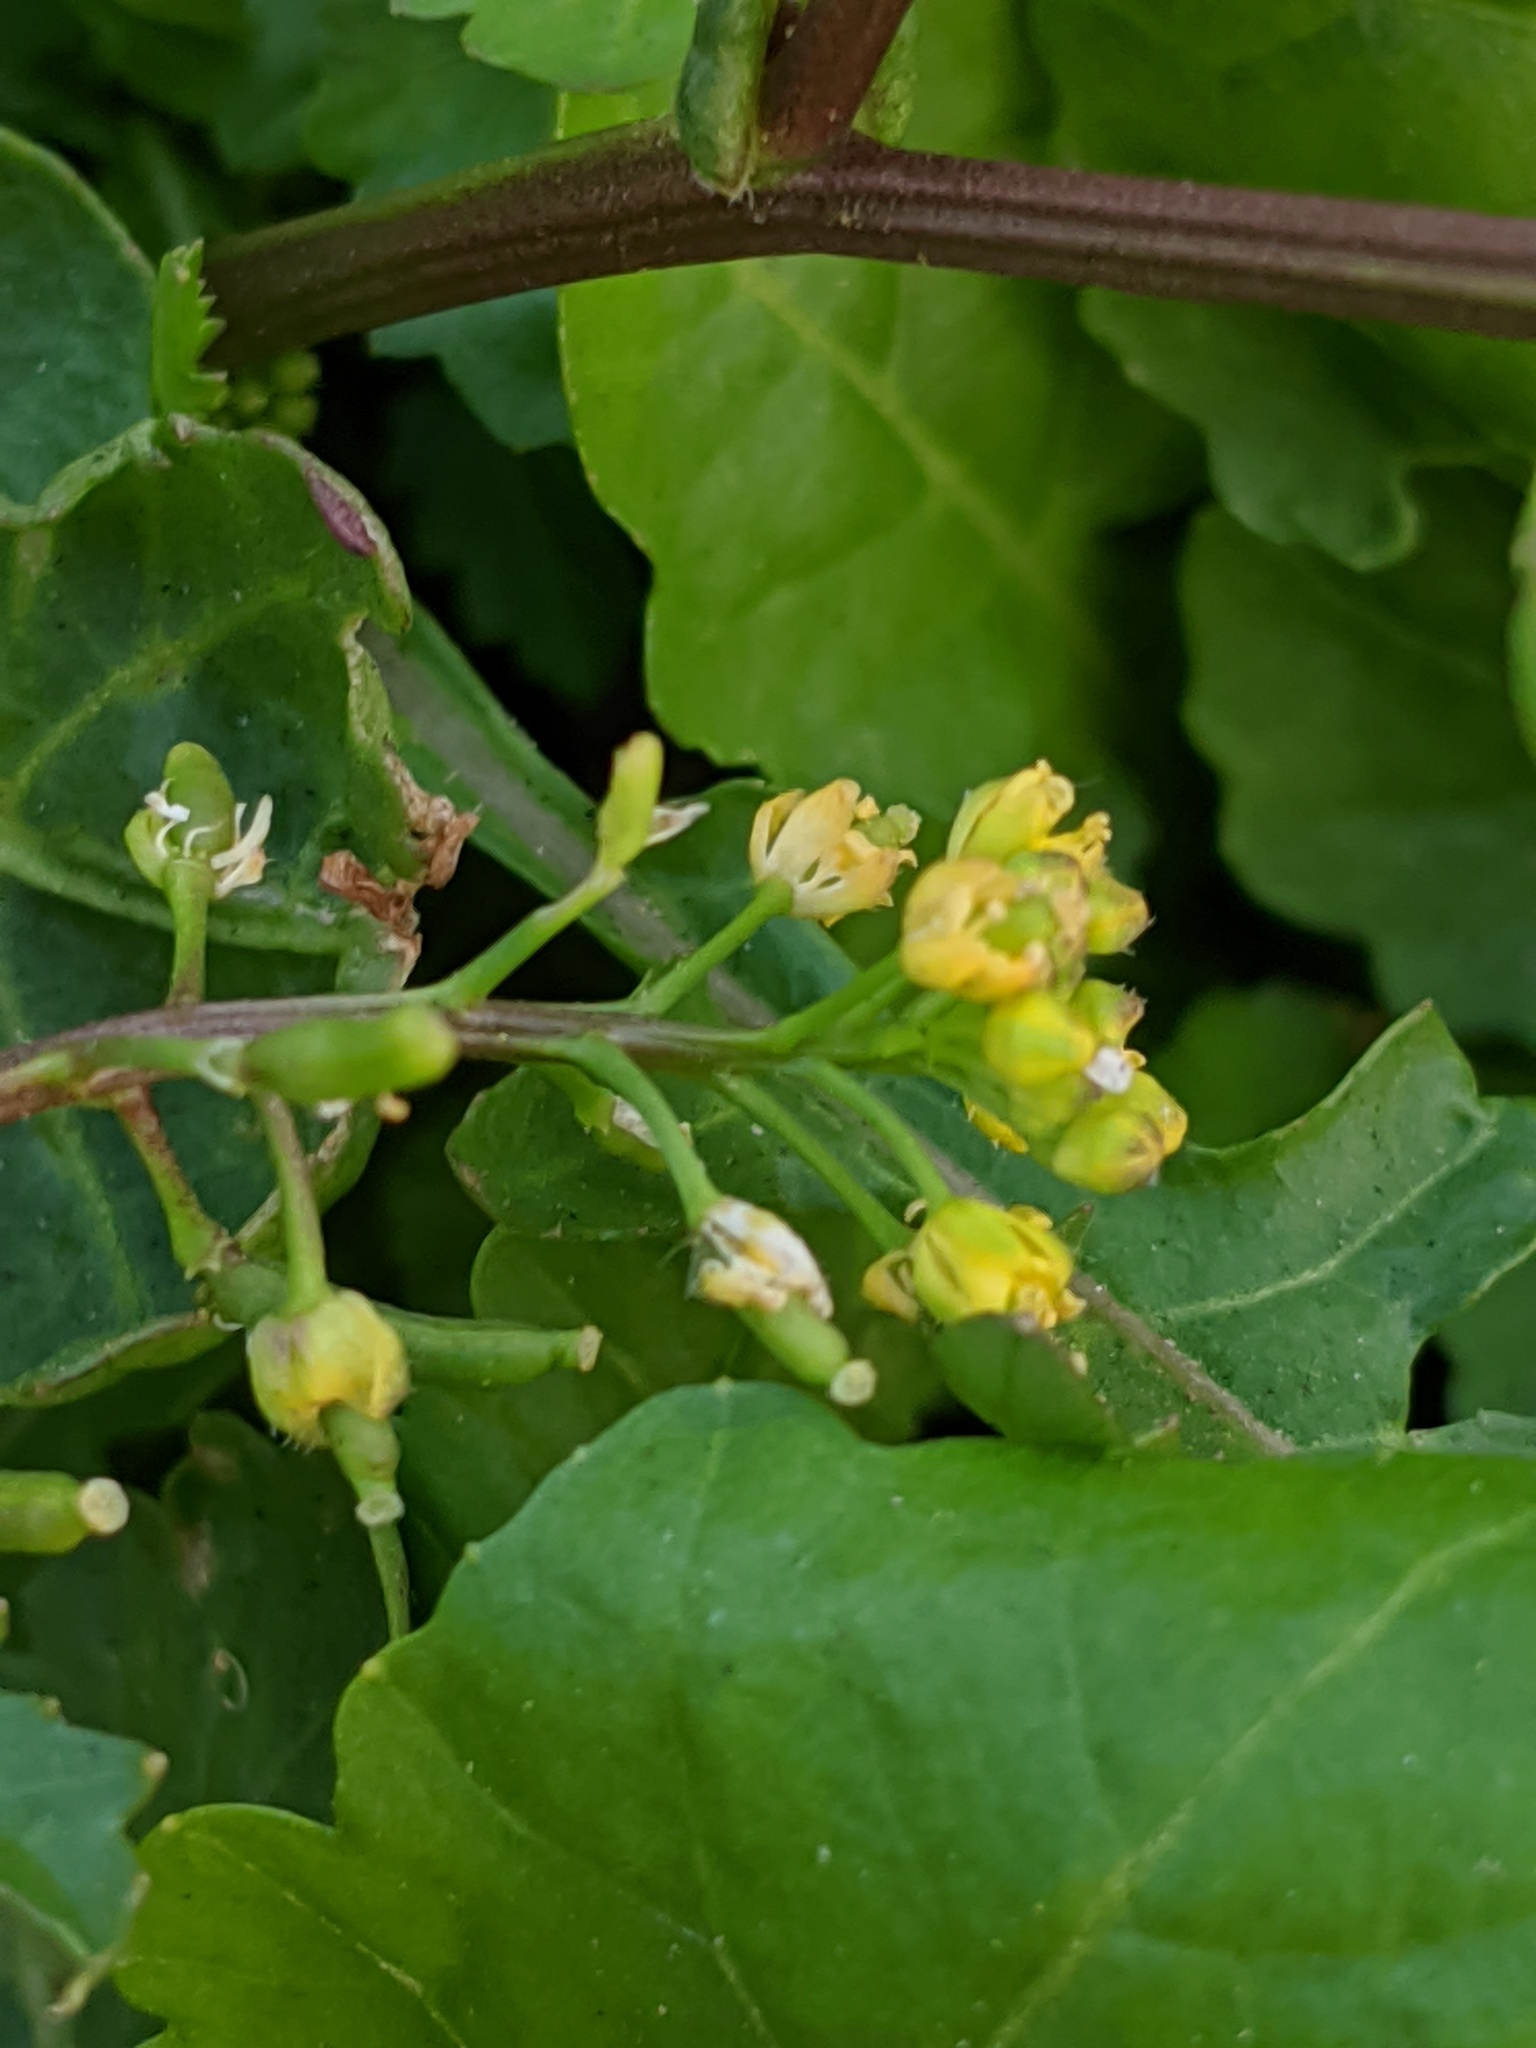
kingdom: Plantae
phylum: Tracheophyta
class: Magnoliopsida
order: Brassicales
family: Brassicaceae
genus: Rorippa
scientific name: Rorippa palustris
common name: Marsh yellow-cress
